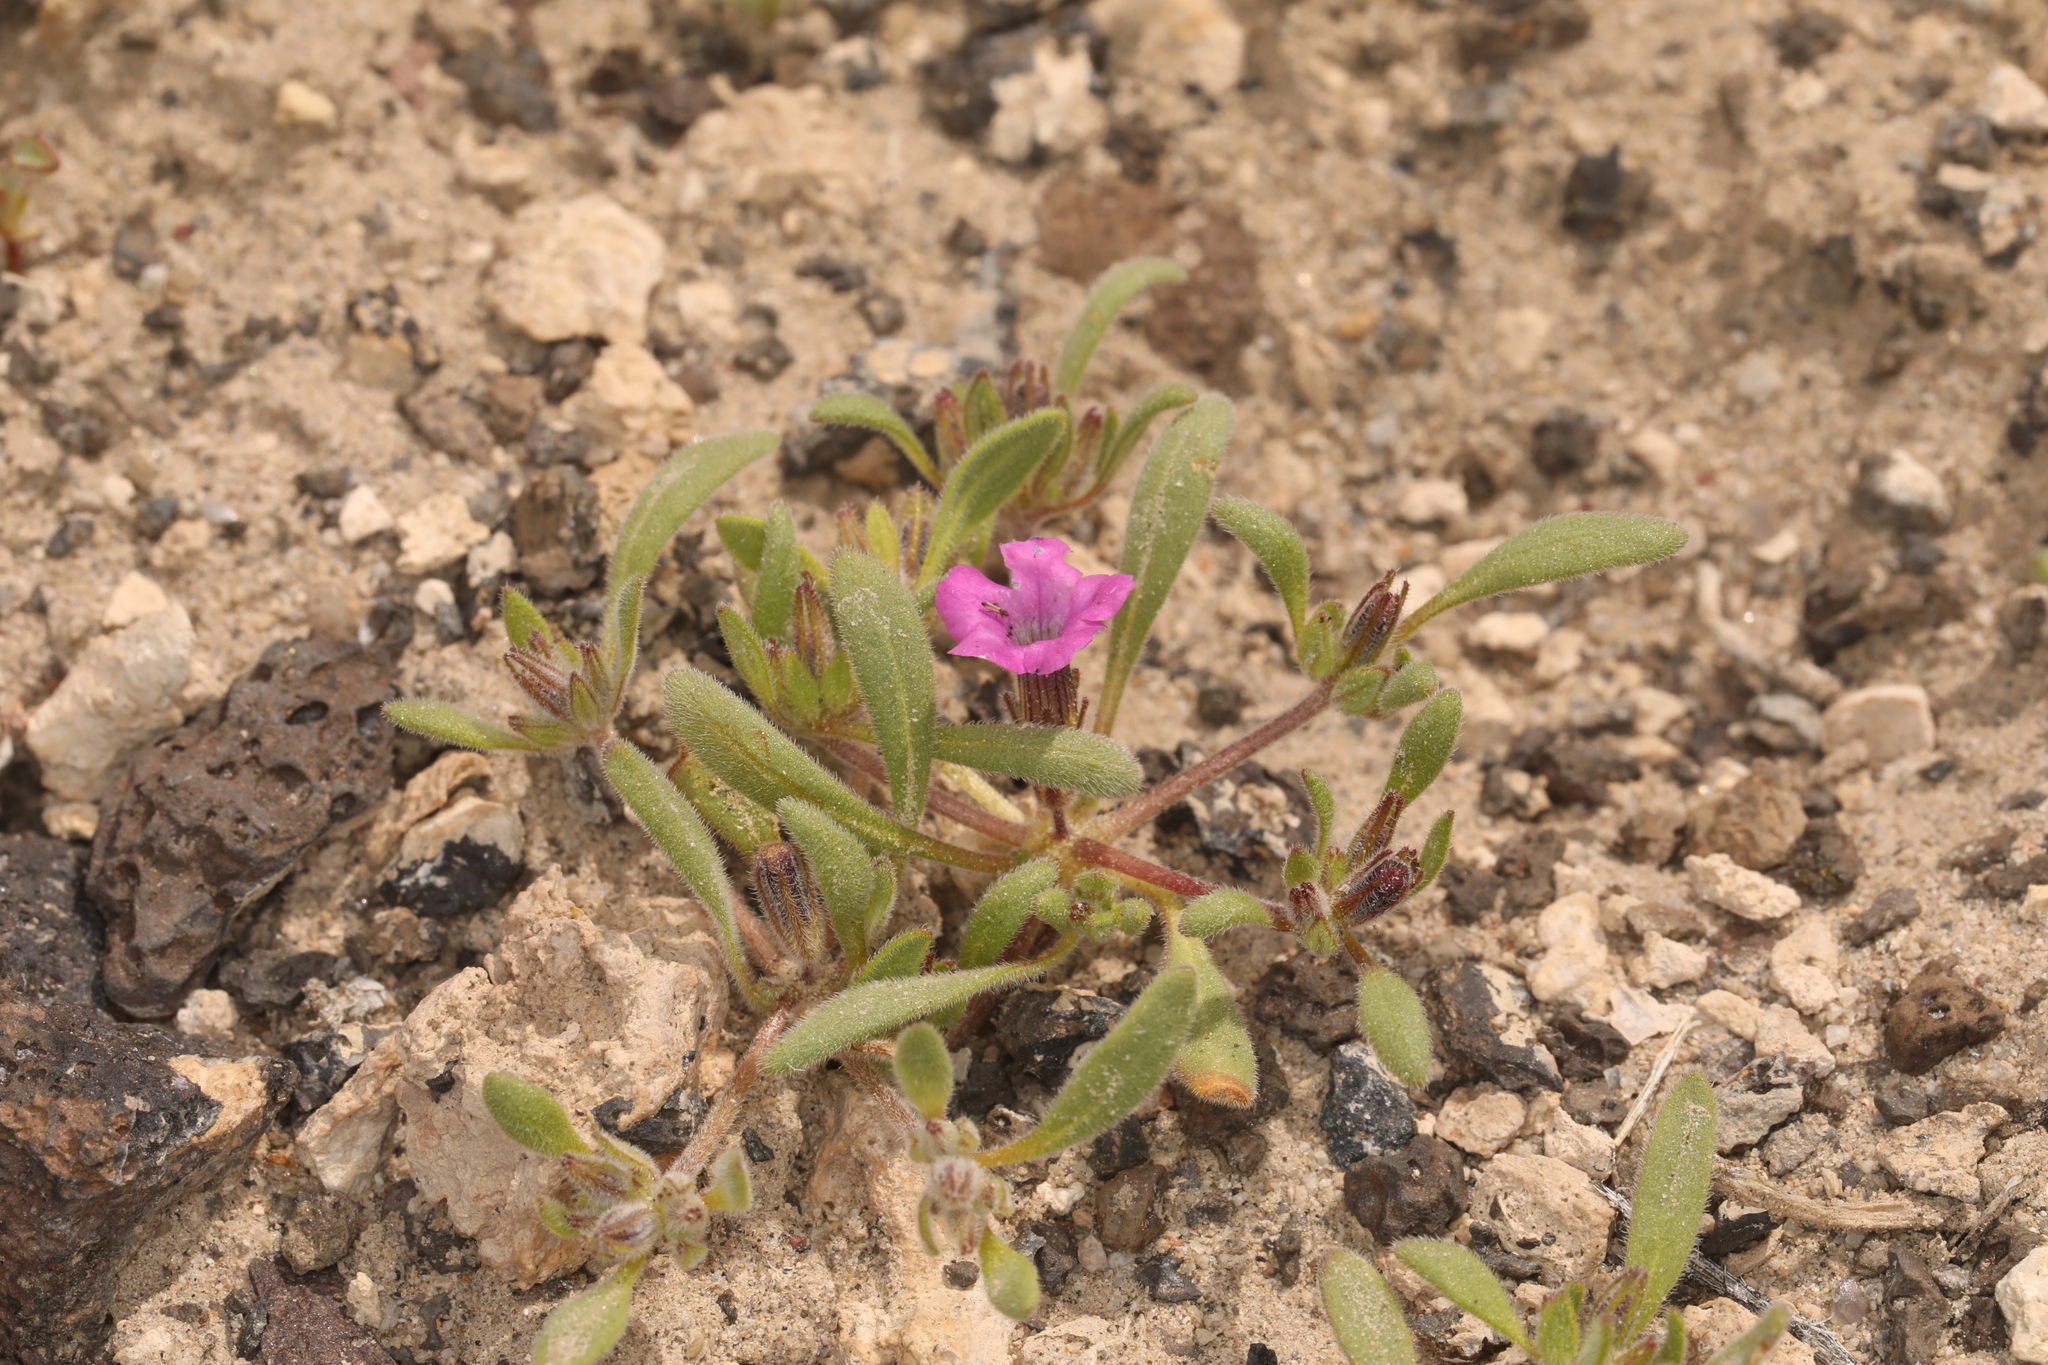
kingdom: Plantae
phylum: Tracheophyta
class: Magnoliopsida
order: Boraginales
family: Namaceae
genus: Nama
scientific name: Nama demissa
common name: Leafy nama
